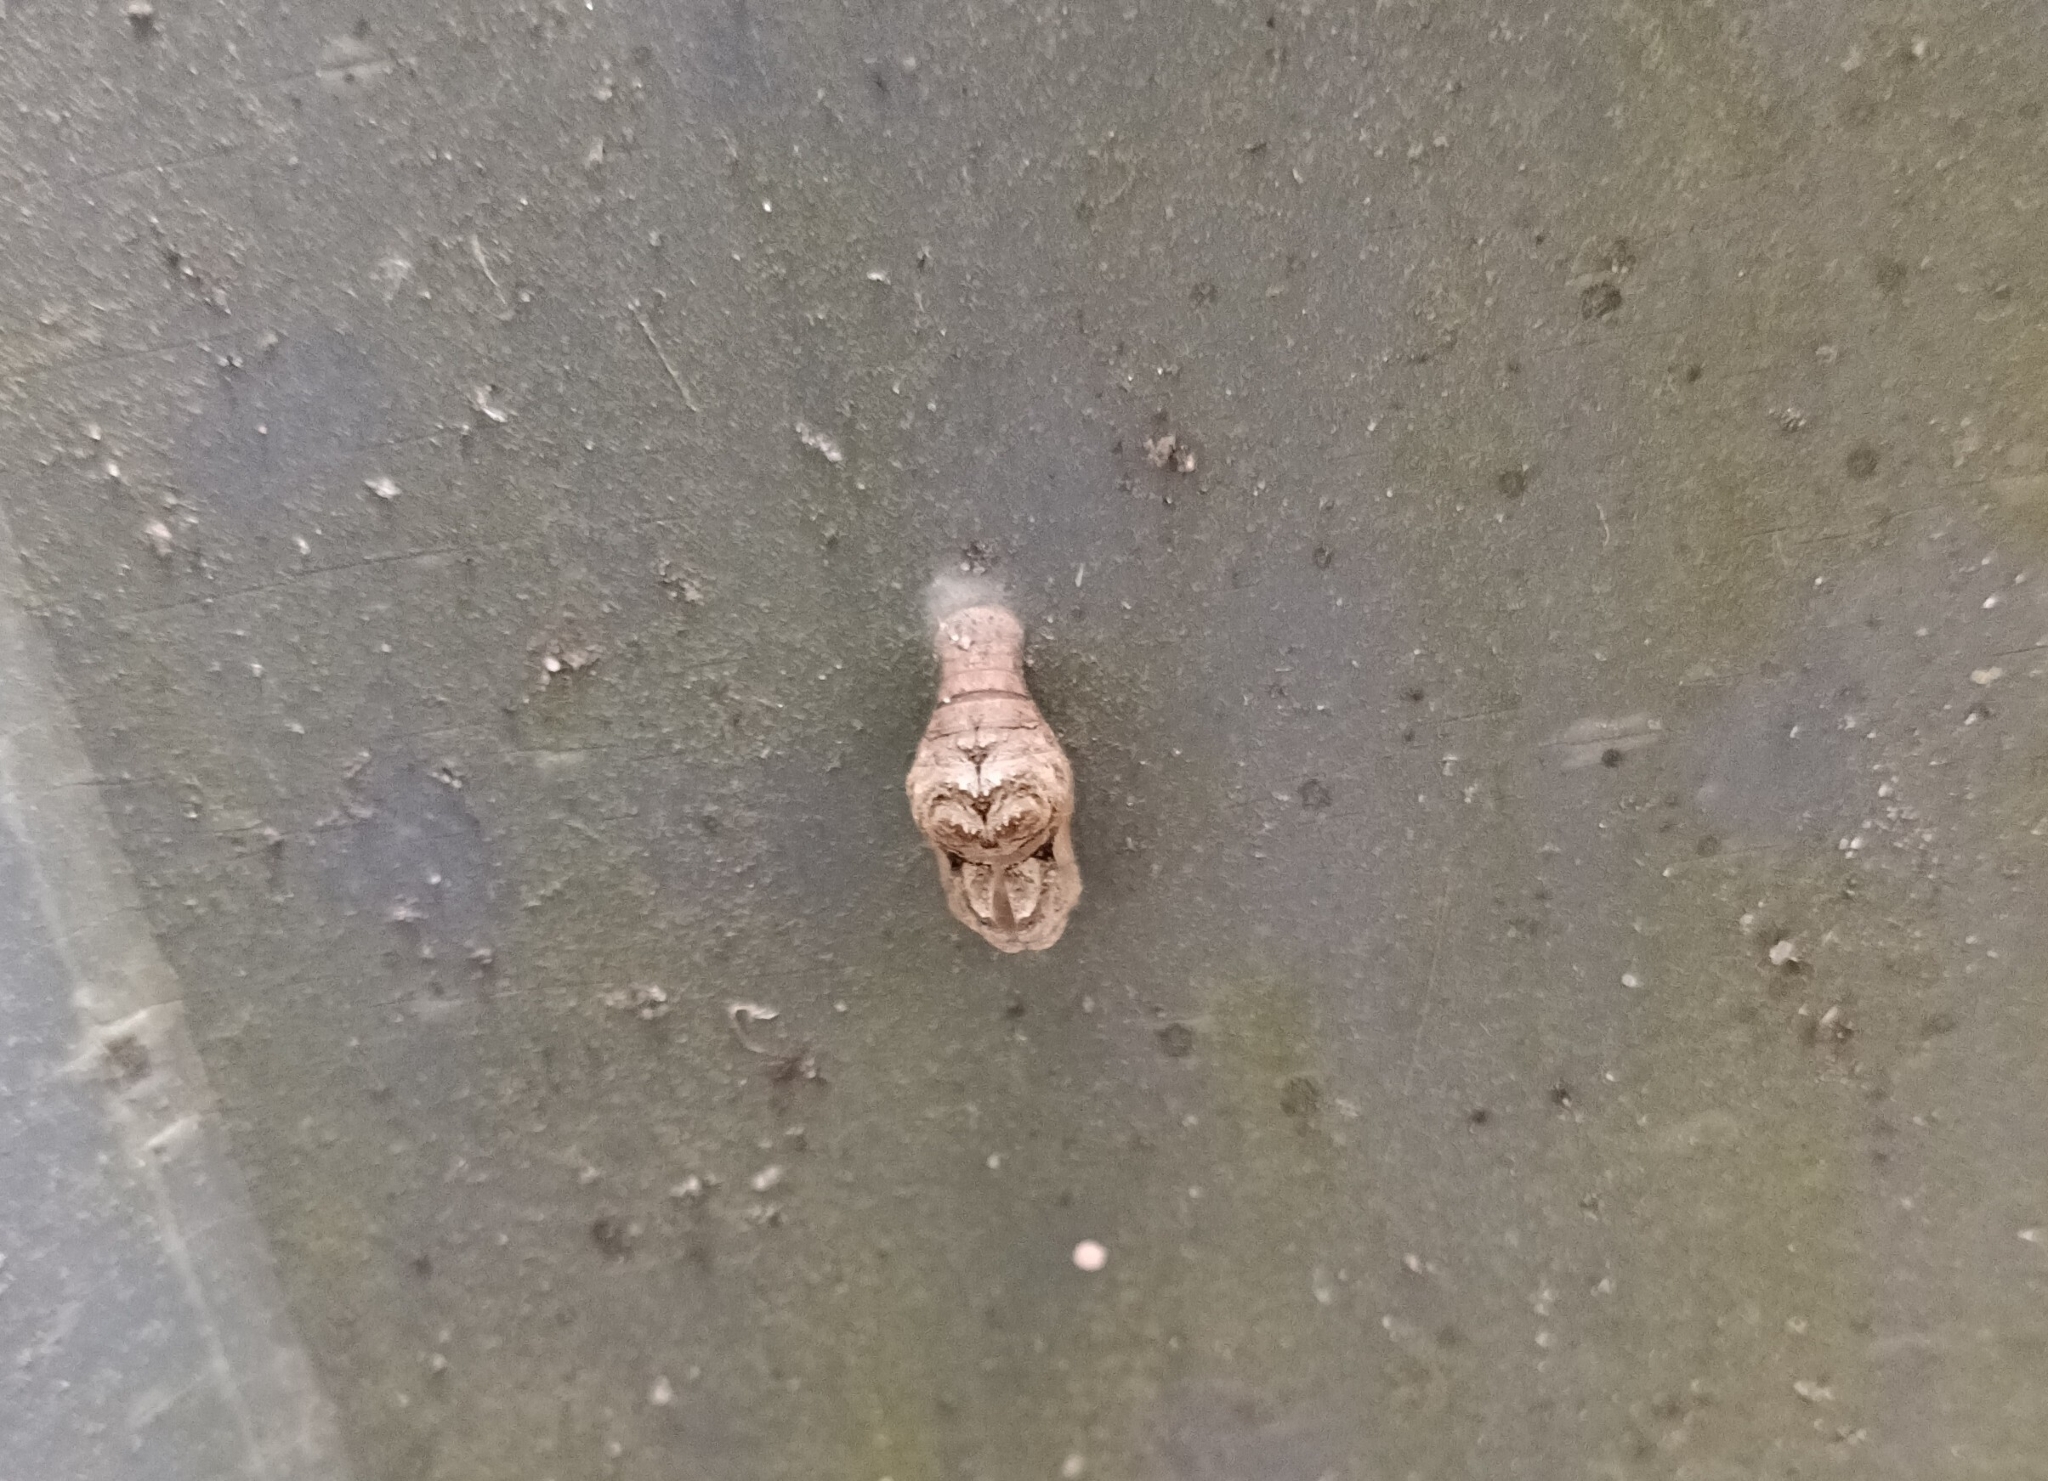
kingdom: Animalia
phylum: Arthropoda
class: Insecta
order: Lepidoptera
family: Lycaenidae
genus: Tajuria
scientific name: Tajuria cippus
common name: Peacock royal
